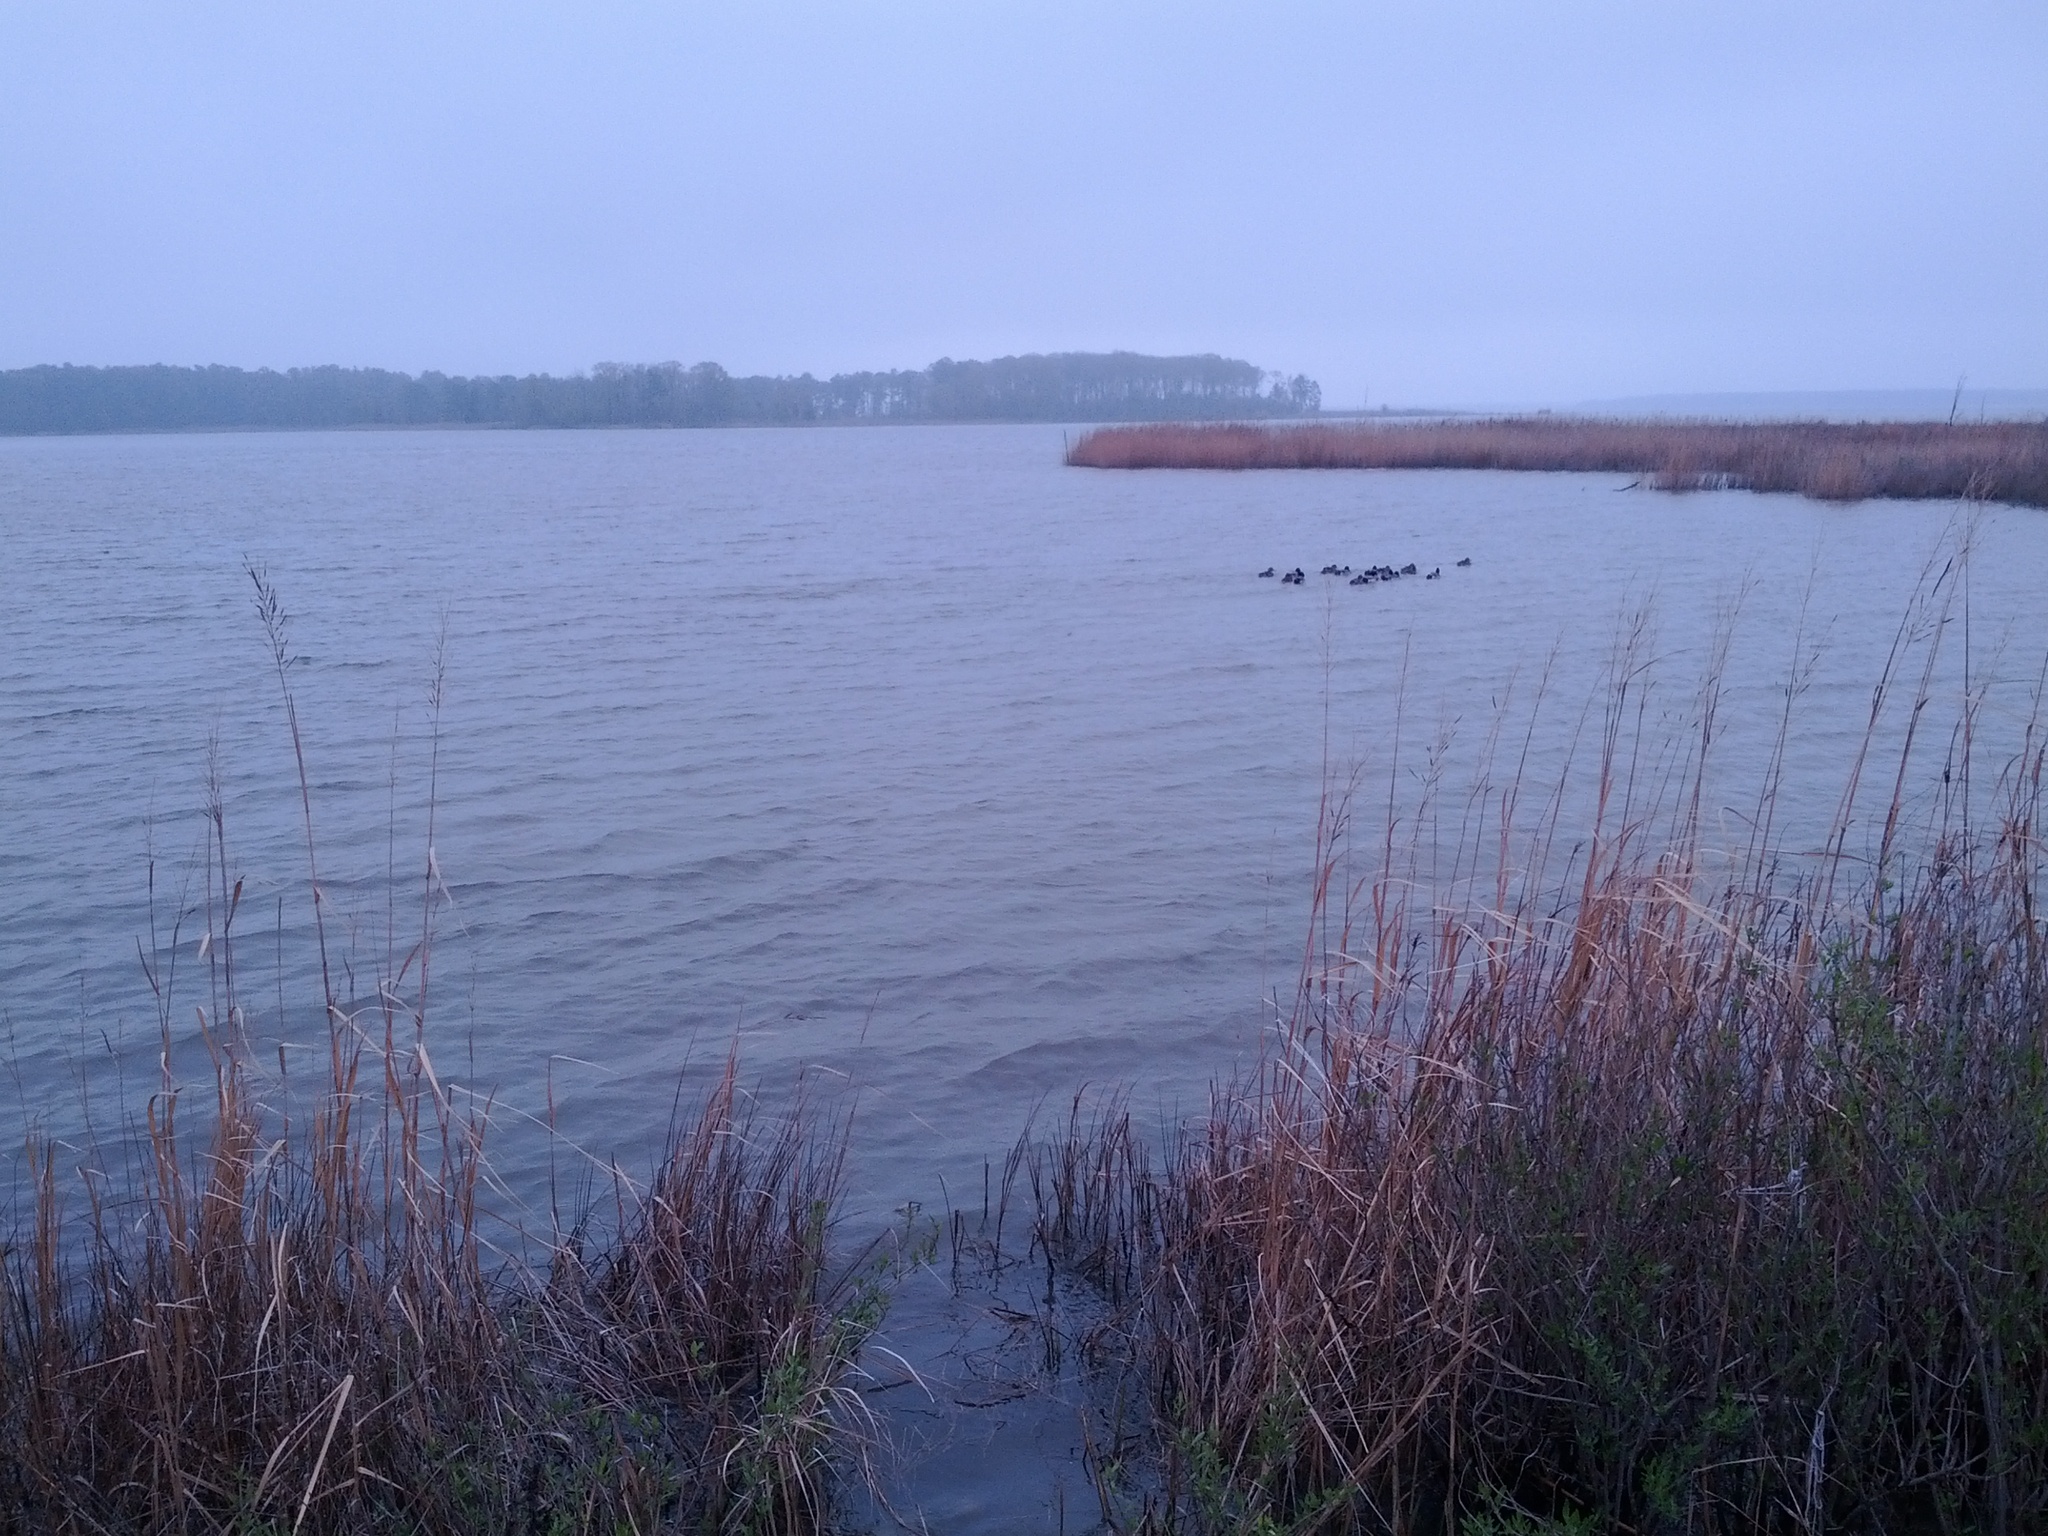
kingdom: Animalia
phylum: Chordata
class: Aves
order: Anseriformes
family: Anatidae
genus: Anas
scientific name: Anas platyrhynchos
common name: Mallard
